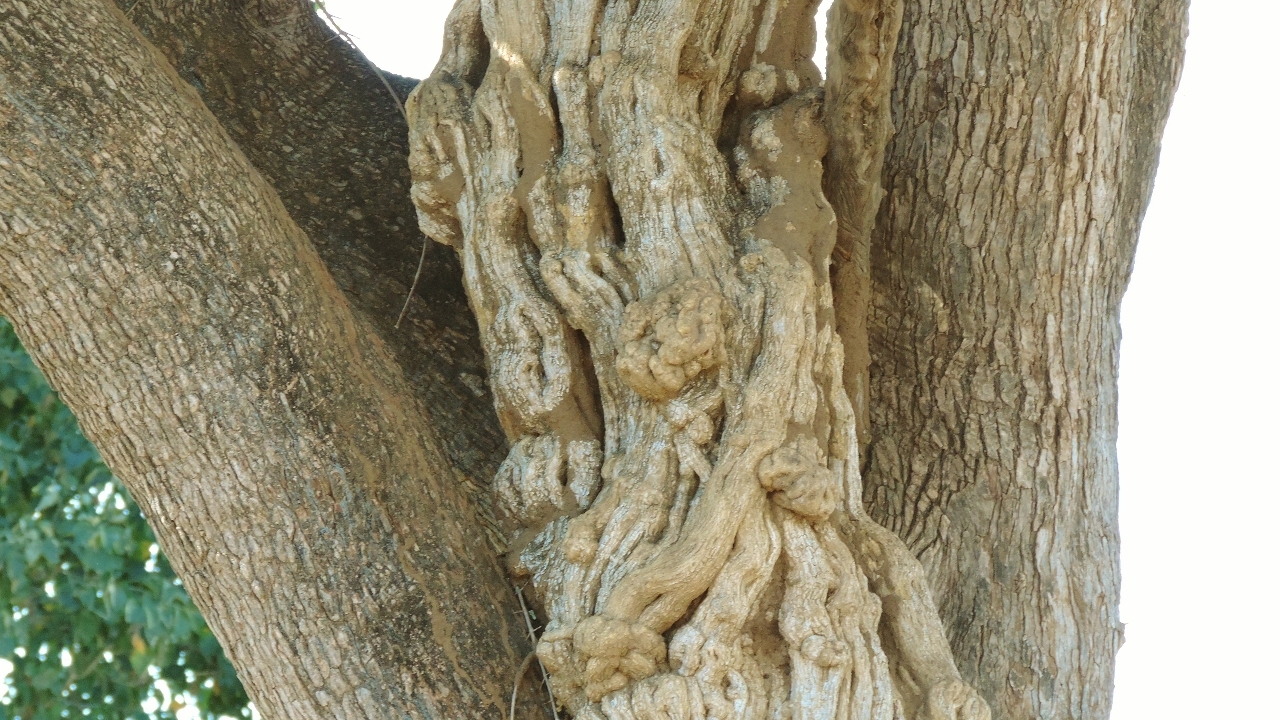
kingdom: Plantae
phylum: Tracheophyta
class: Magnoliopsida
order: Ranunculales
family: Menispermaceae
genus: Cocculus
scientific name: Cocculus hirsutus
